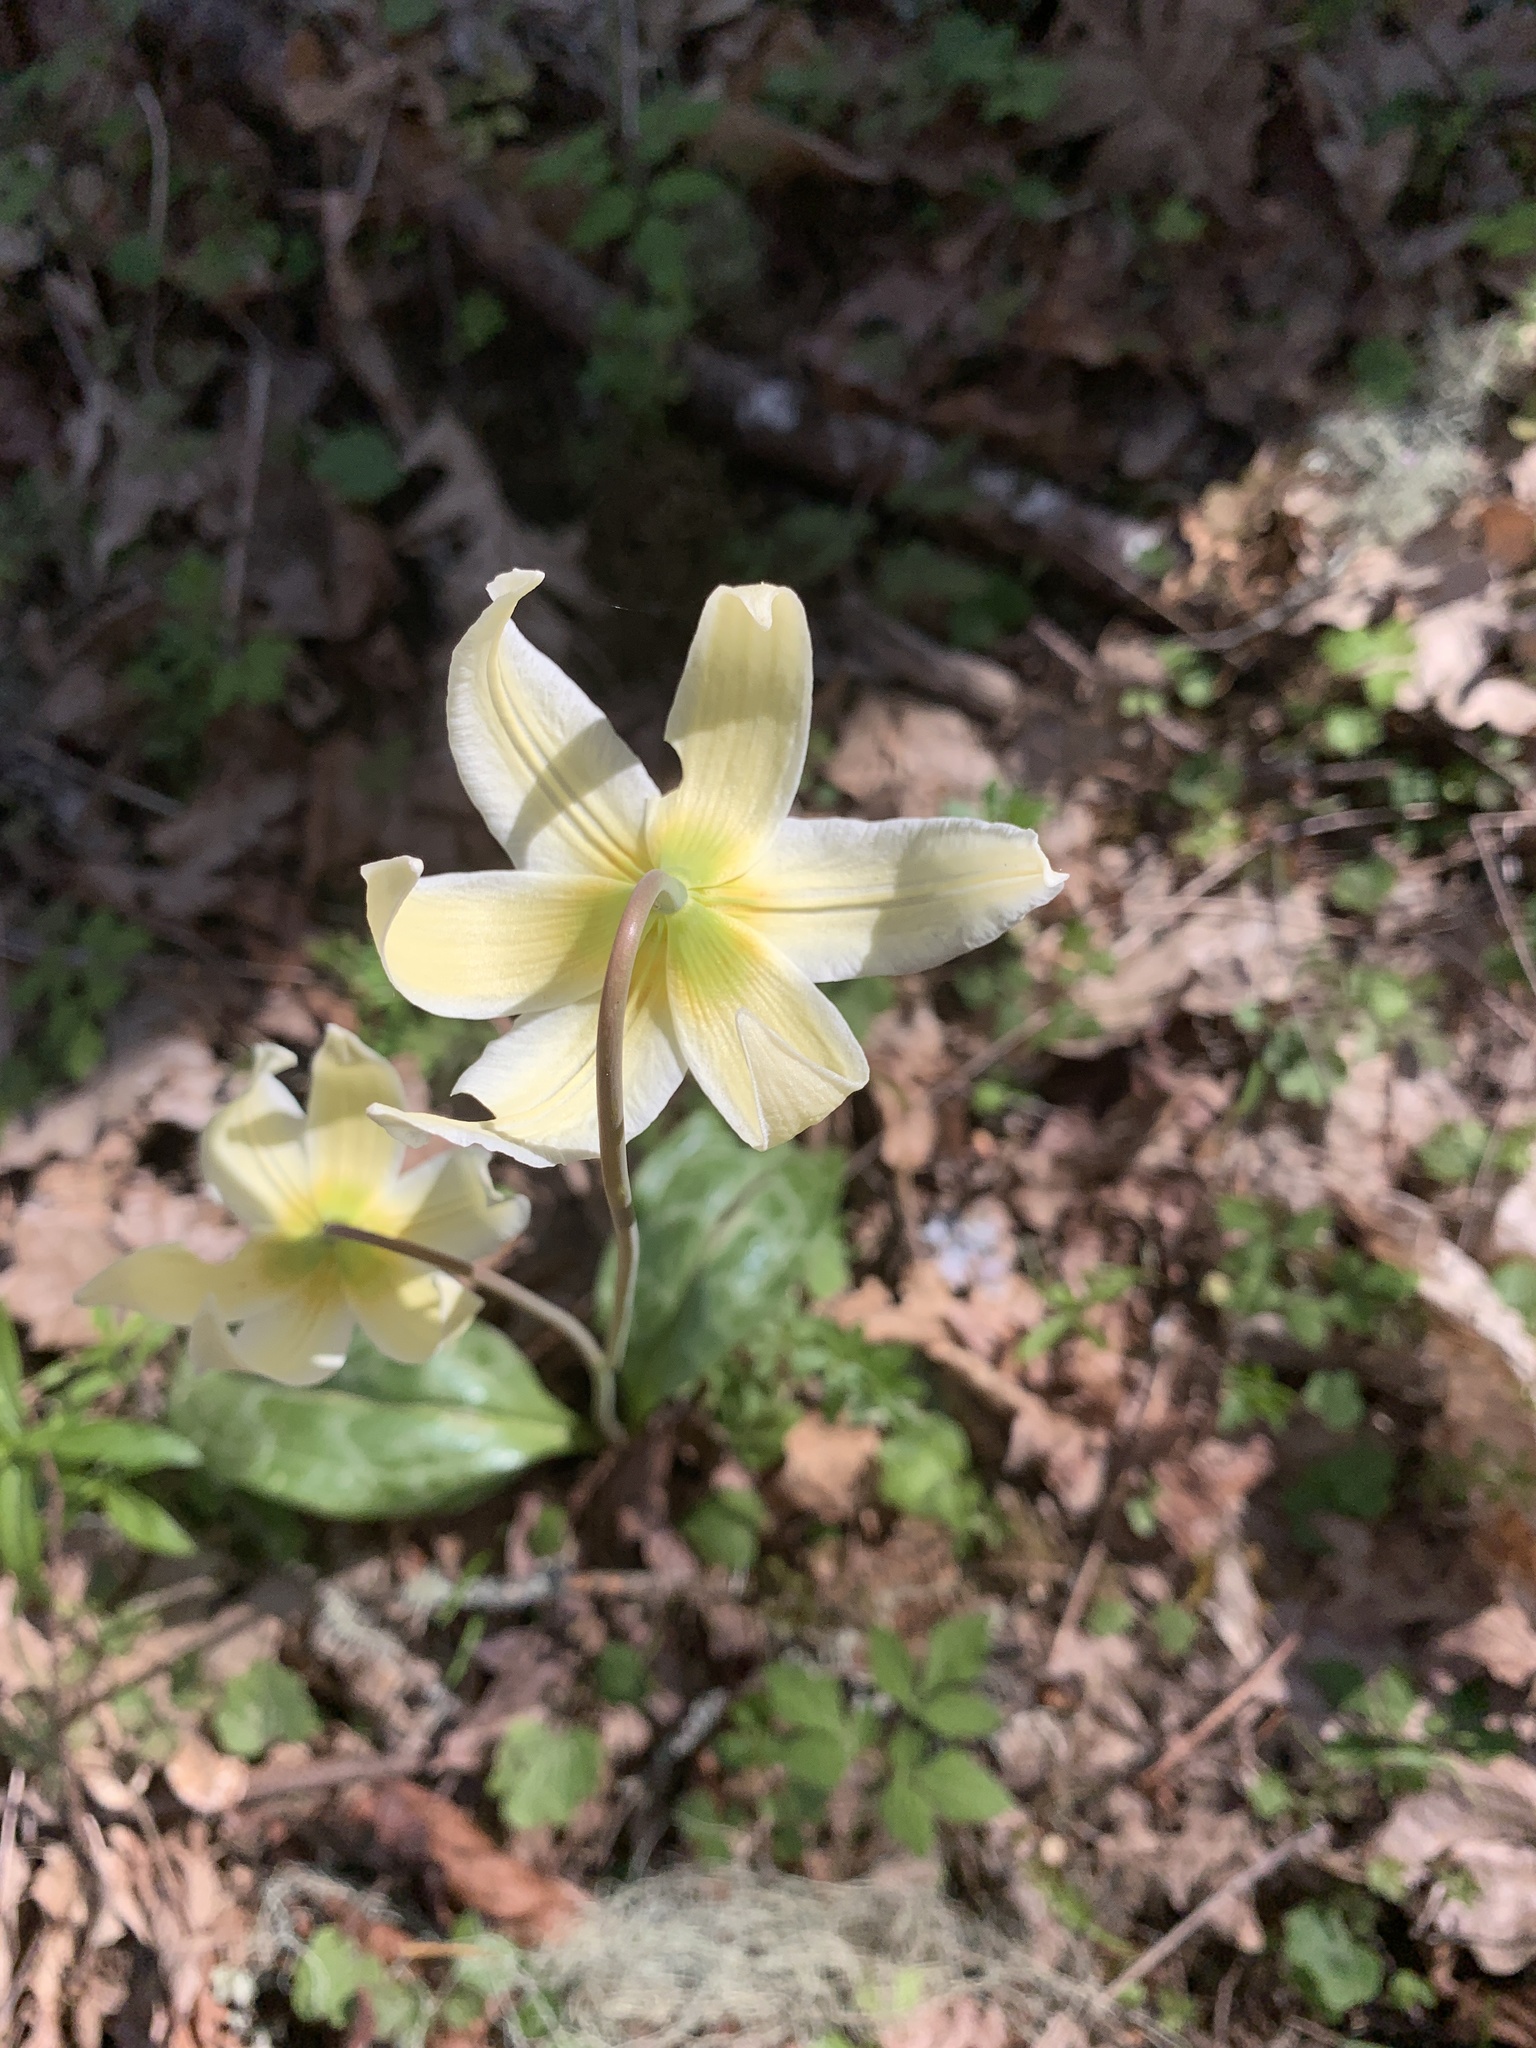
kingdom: Plantae
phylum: Tracheophyta
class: Liliopsida
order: Liliales
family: Liliaceae
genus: Erythronium
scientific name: Erythronium oregonum
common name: Giant adder's-tongue
